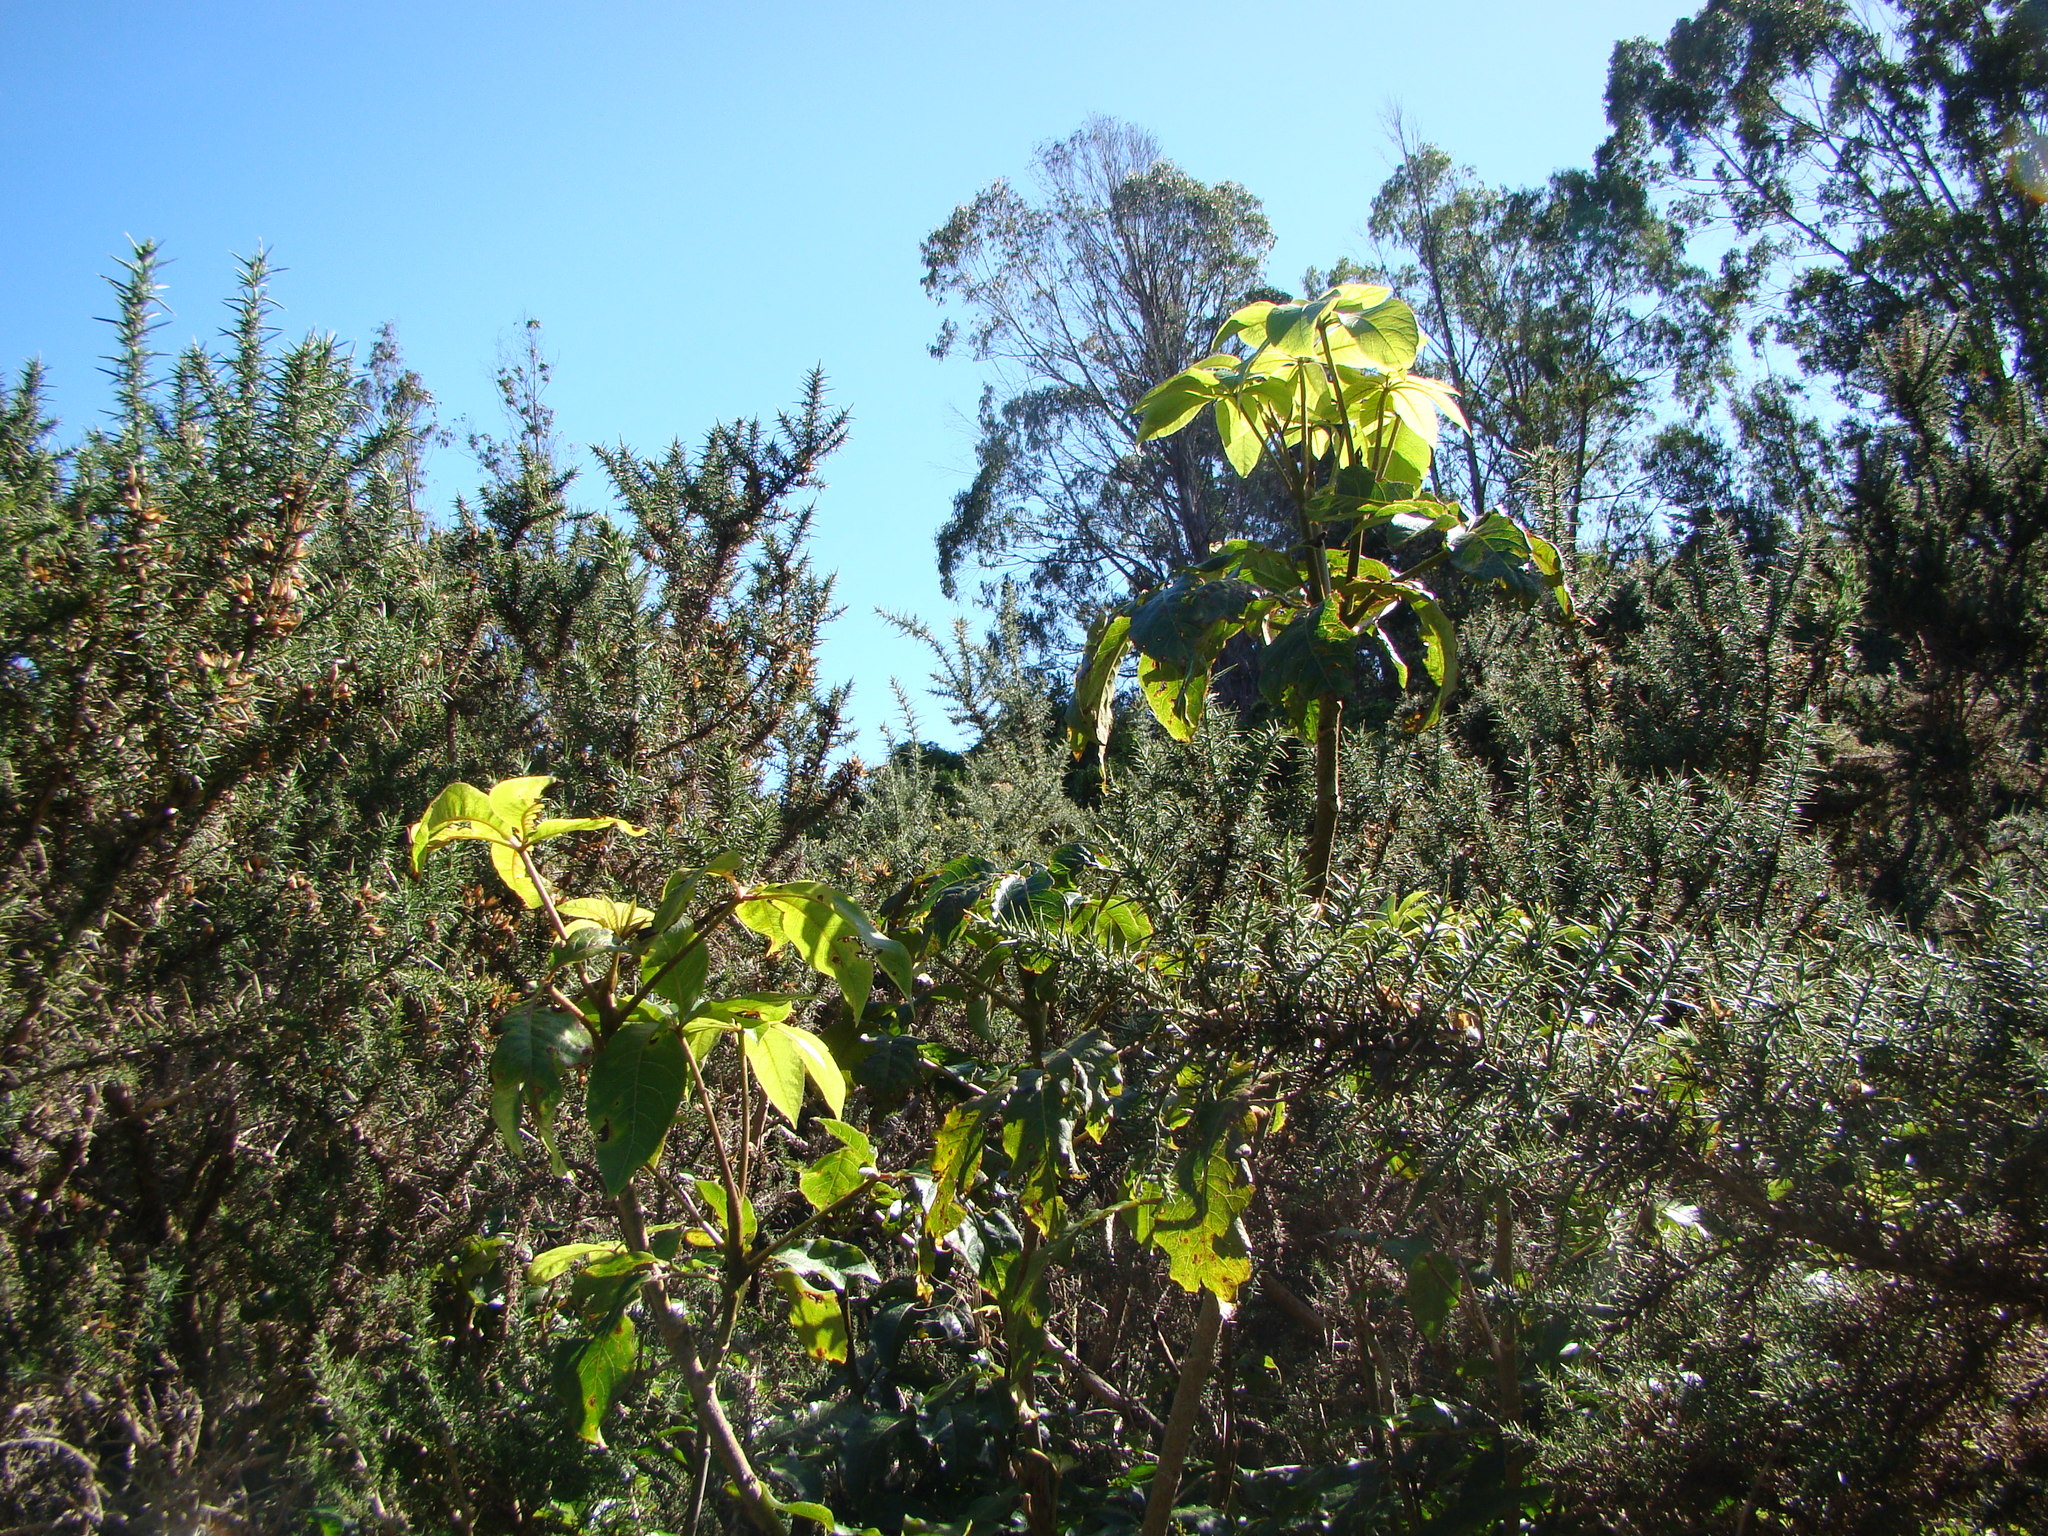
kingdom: Plantae
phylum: Tracheophyta
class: Magnoliopsida
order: Apiales
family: Araliaceae
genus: Schefflera
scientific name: Schefflera digitata
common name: Pate
